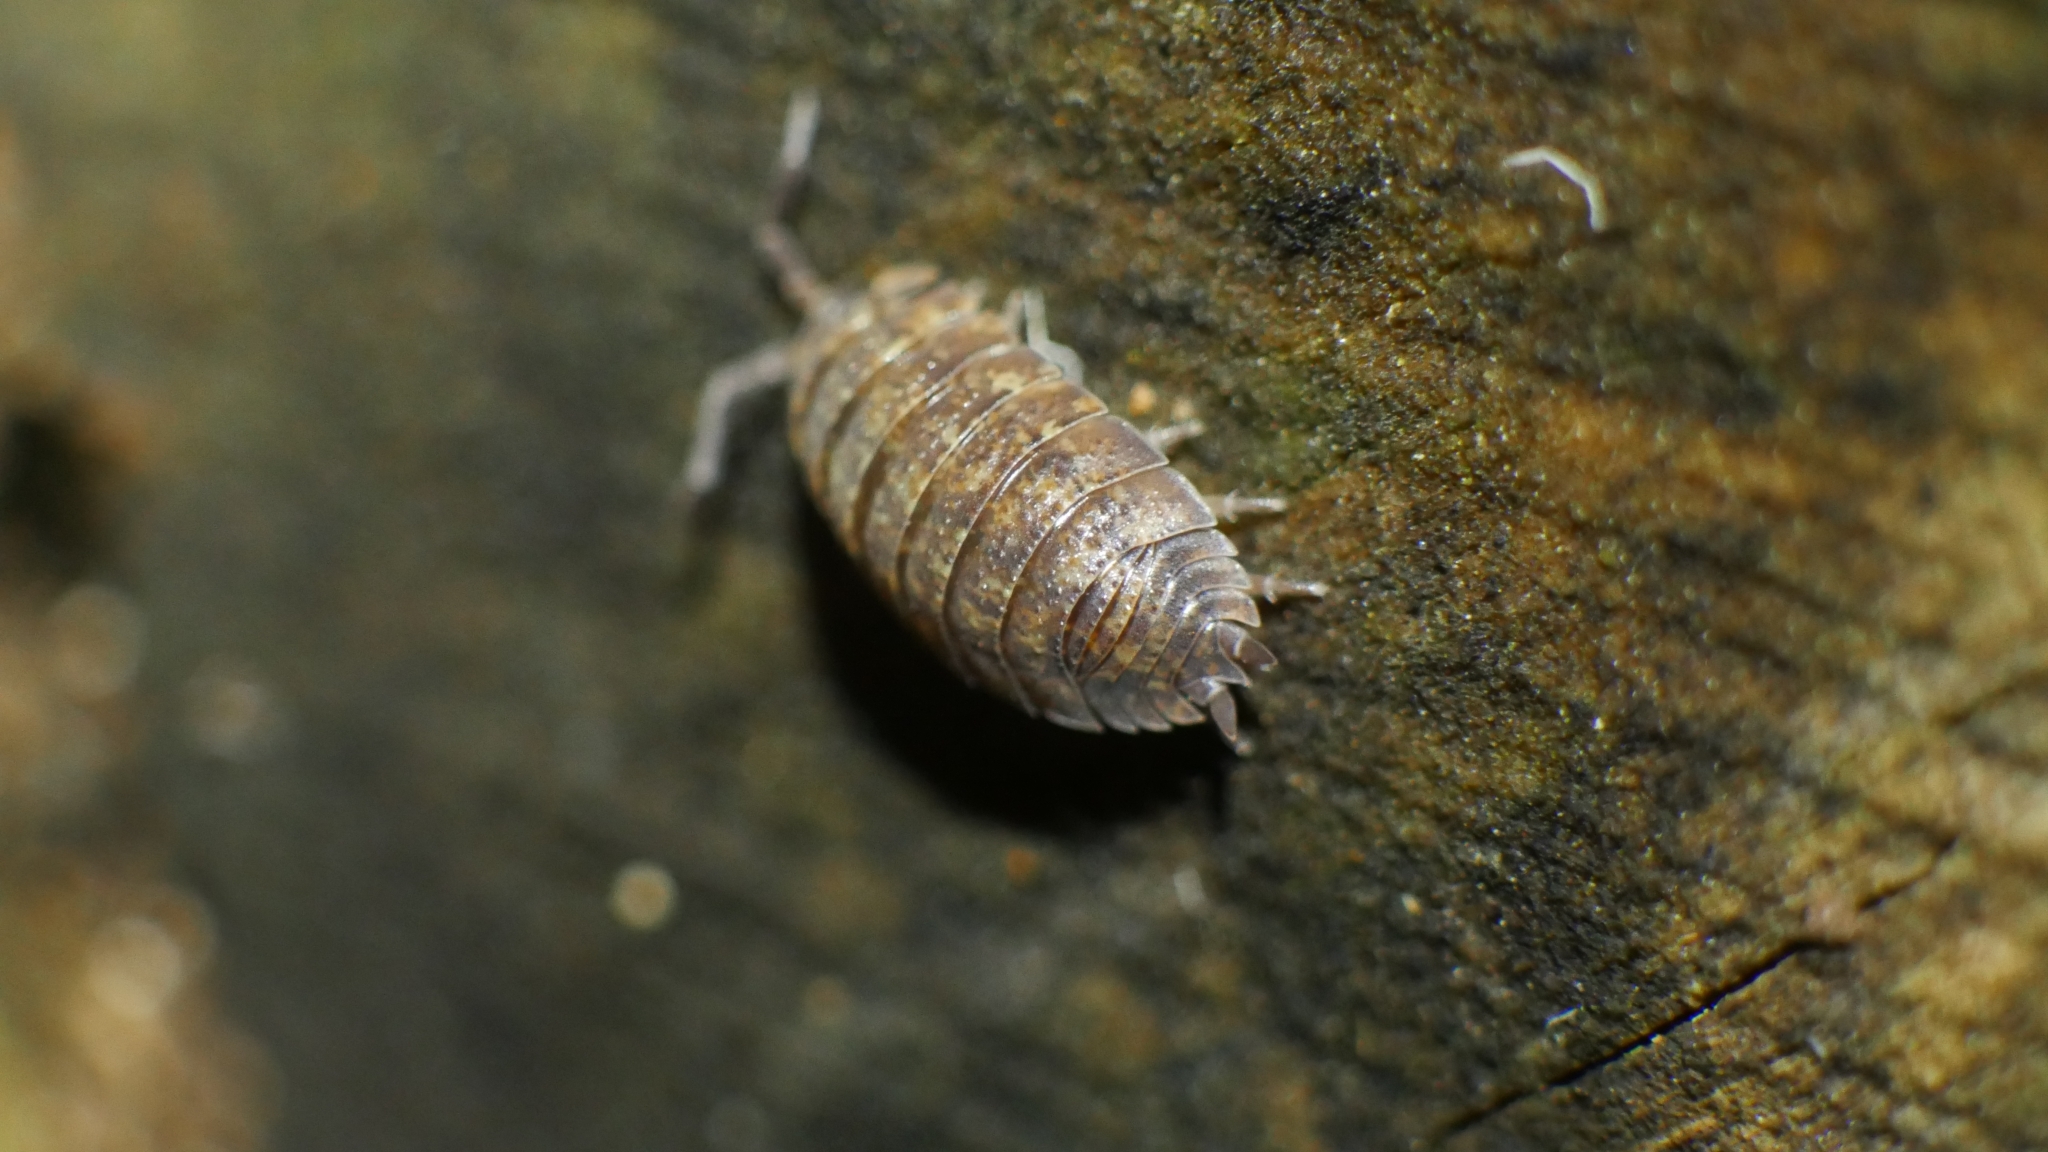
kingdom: Animalia
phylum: Arthropoda
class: Malacostraca
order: Isopoda
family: Porcellionidae
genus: Porcellio
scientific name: Porcellio scaber
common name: Common rough woodlouse
